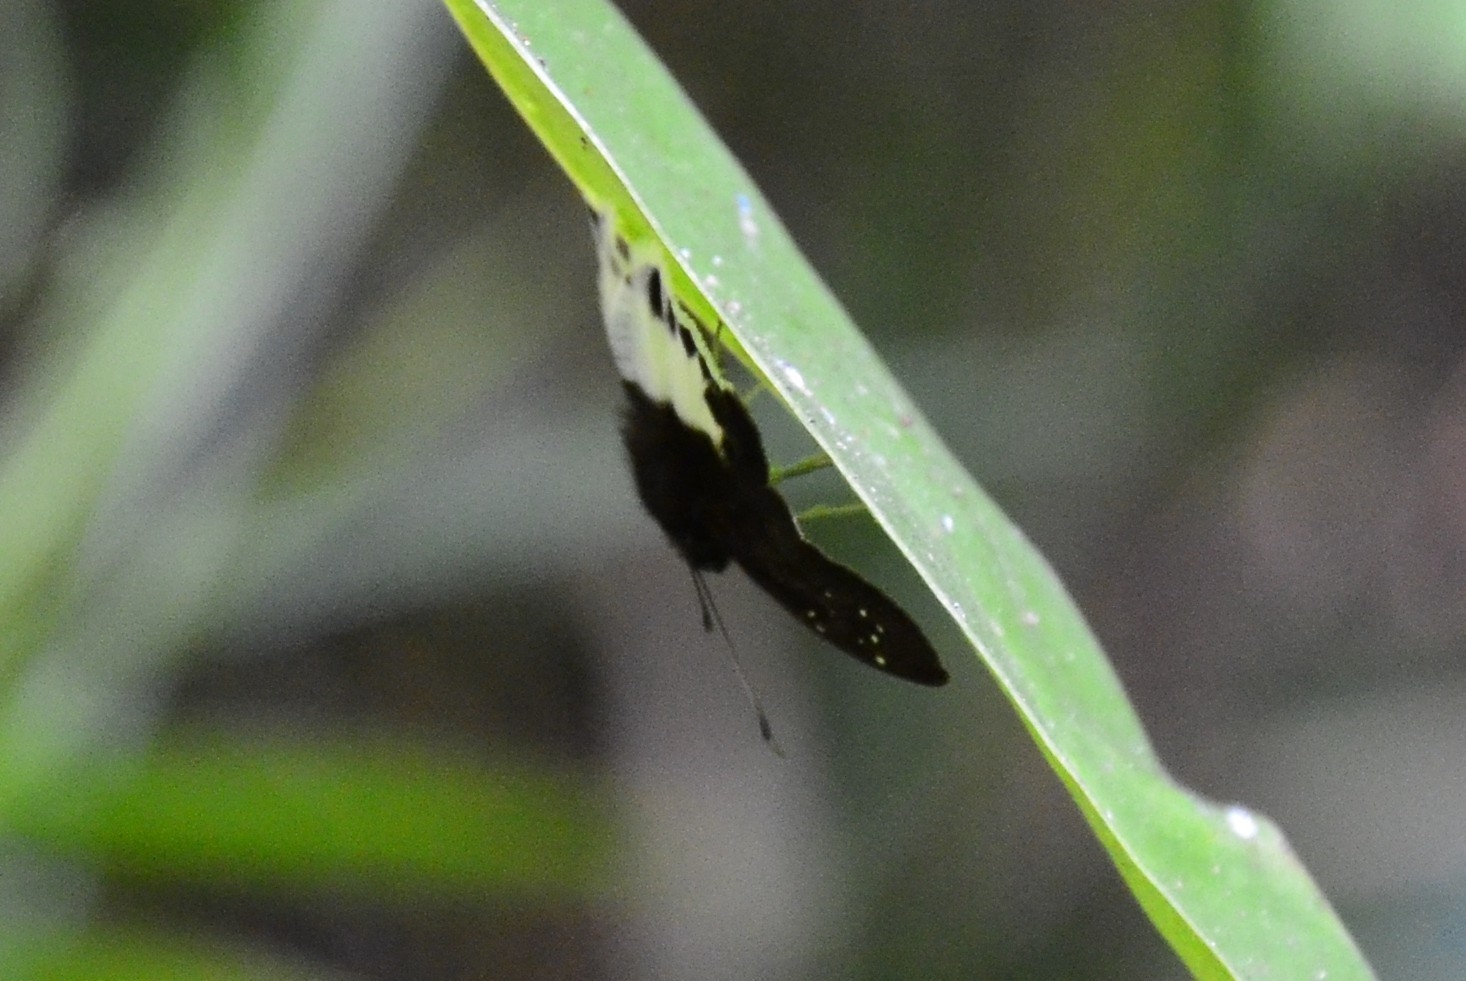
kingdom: Animalia
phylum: Arthropoda
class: Insecta
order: Lepidoptera
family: Hesperiidae
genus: Tagiades
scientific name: Tagiades litigiosa
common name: Water snow flat
